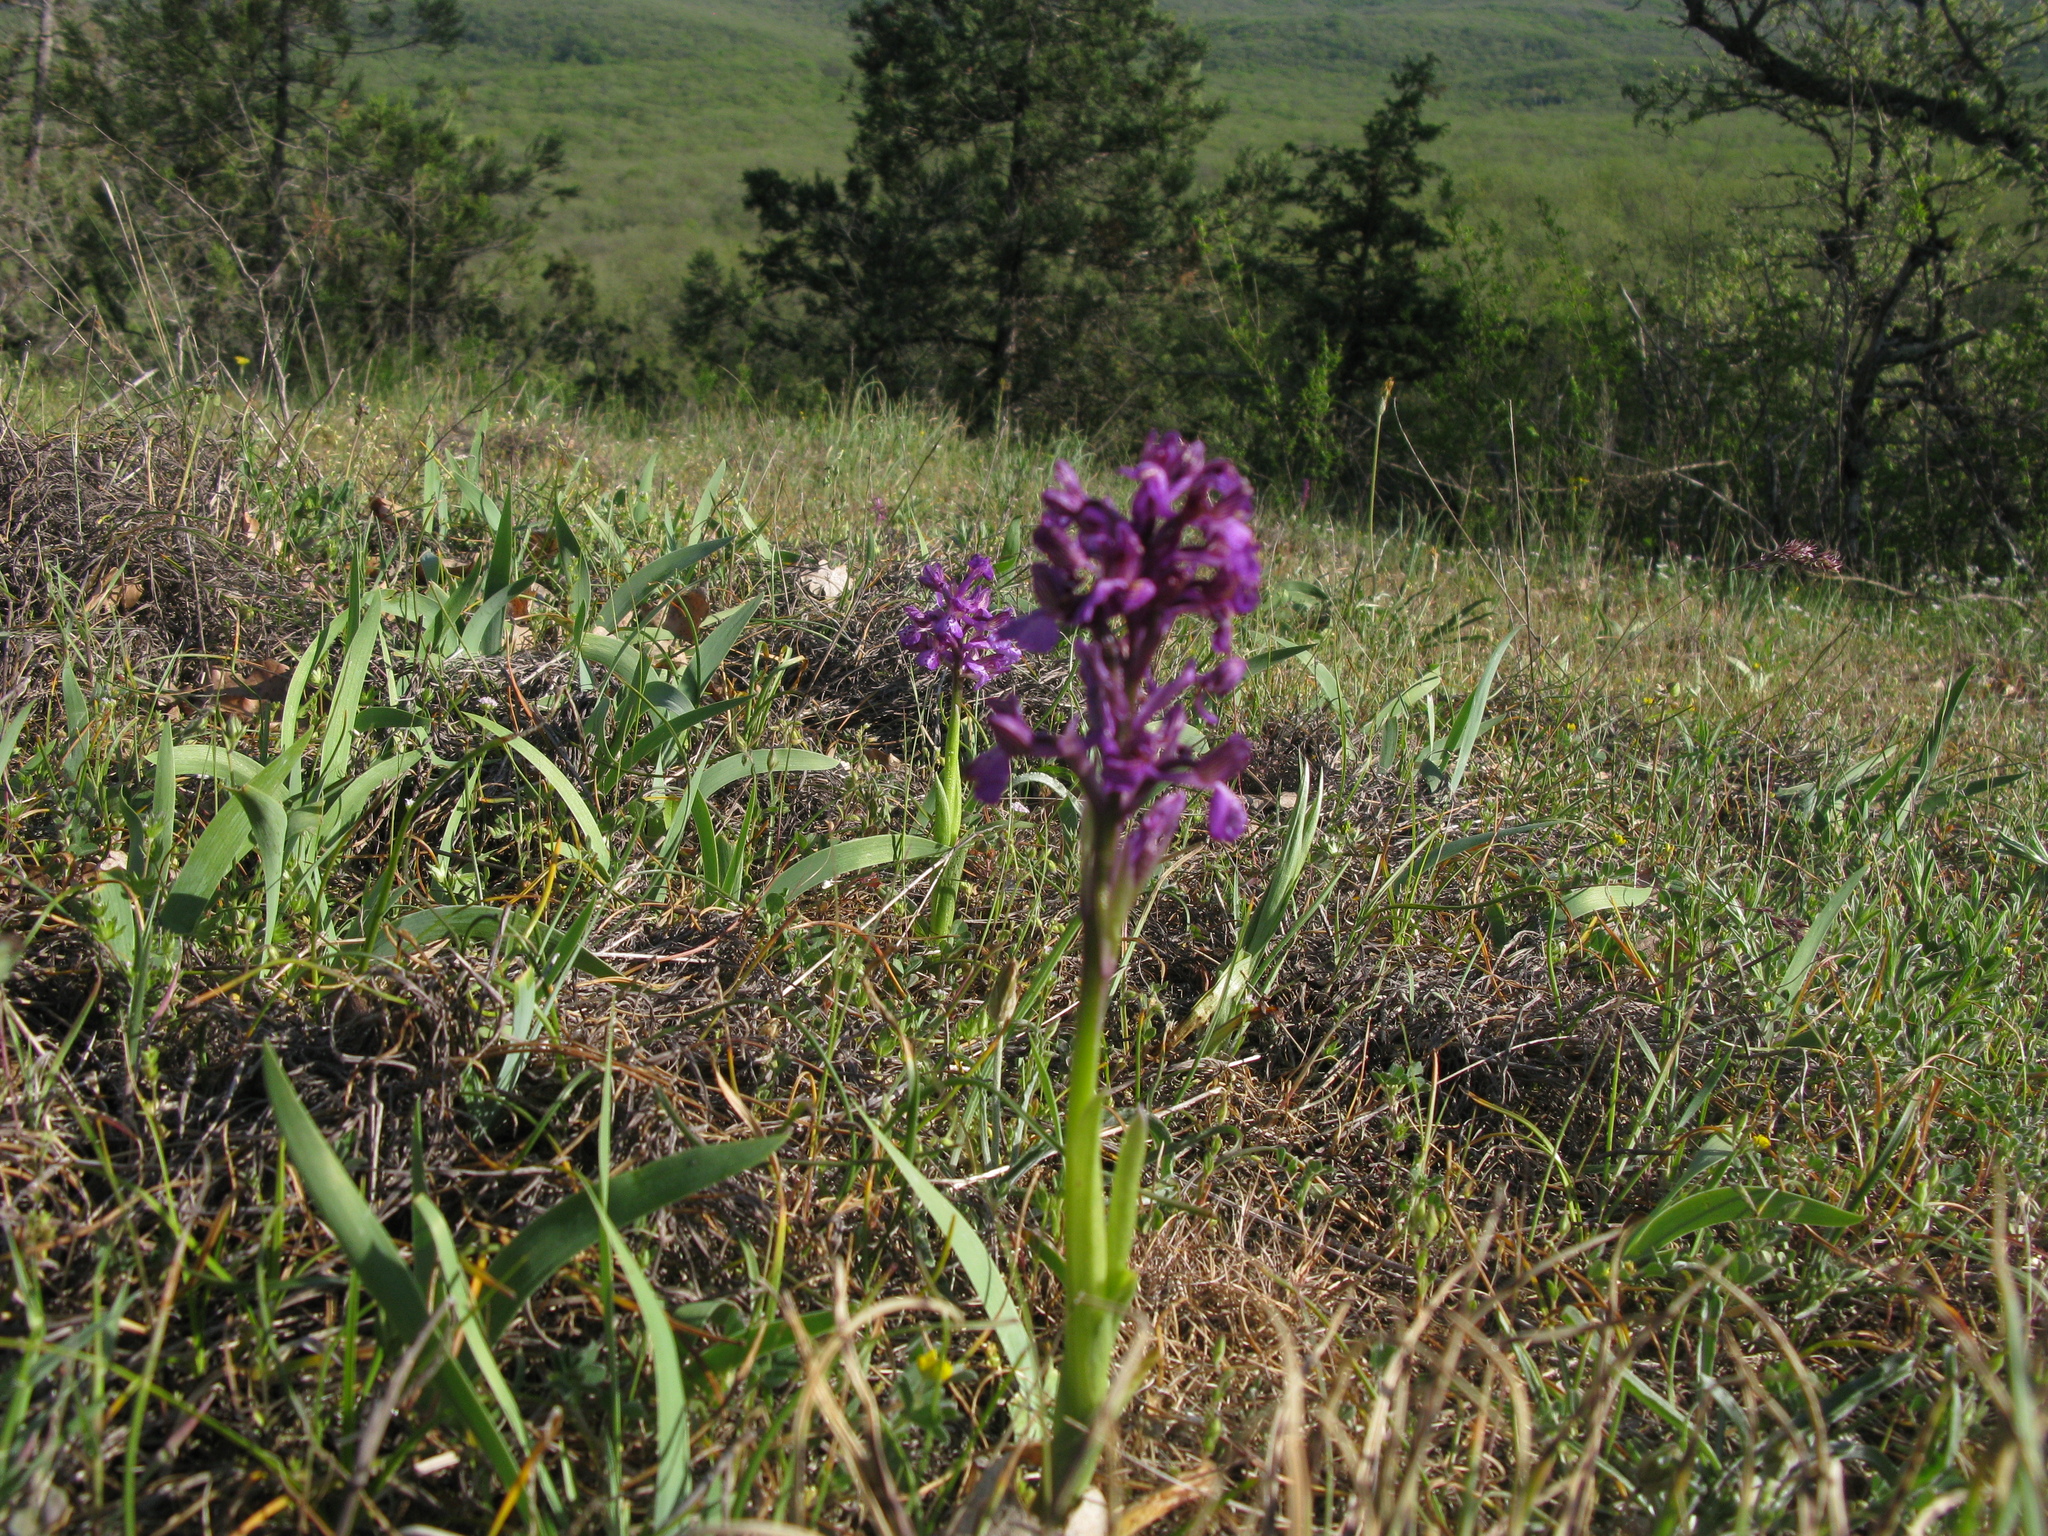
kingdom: Plantae
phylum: Tracheophyta
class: Liliopsida
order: Asparagales
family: Orchidaceae
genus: Anacamptis
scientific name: Anacamptis morio
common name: Green-winged orchid
